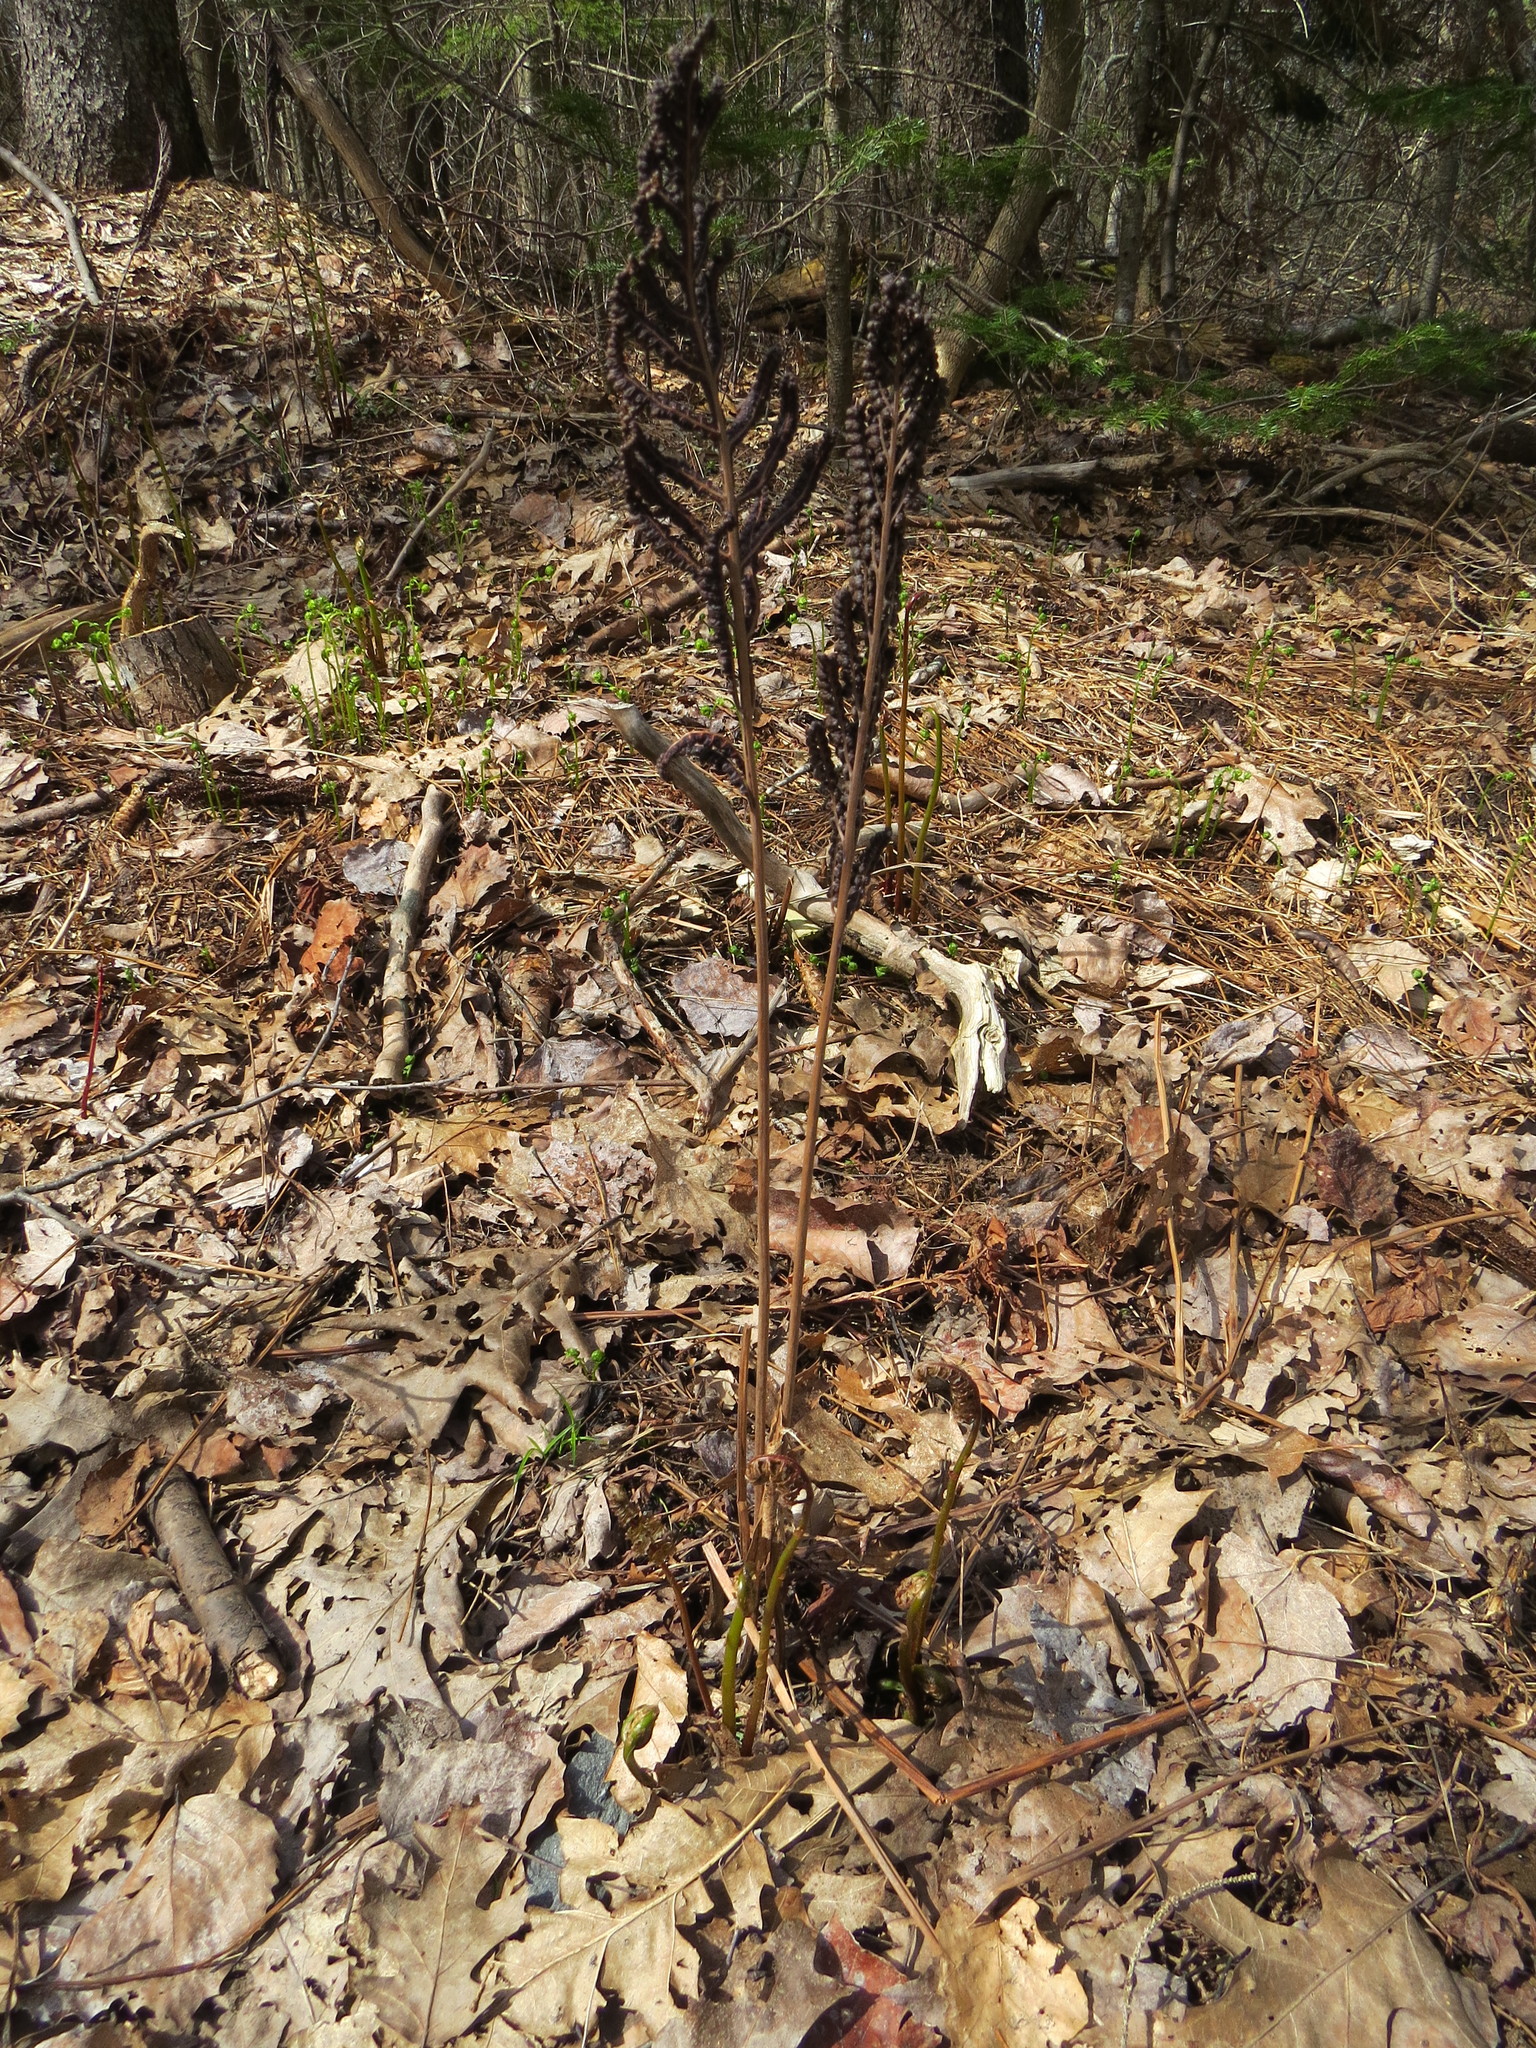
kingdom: Plantae
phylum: Tracheophyta
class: Polypodiopsida
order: Polypodiales
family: Onocleaceae
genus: Onoclea
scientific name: Onoclea sensibilis
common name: Sensitive fern
